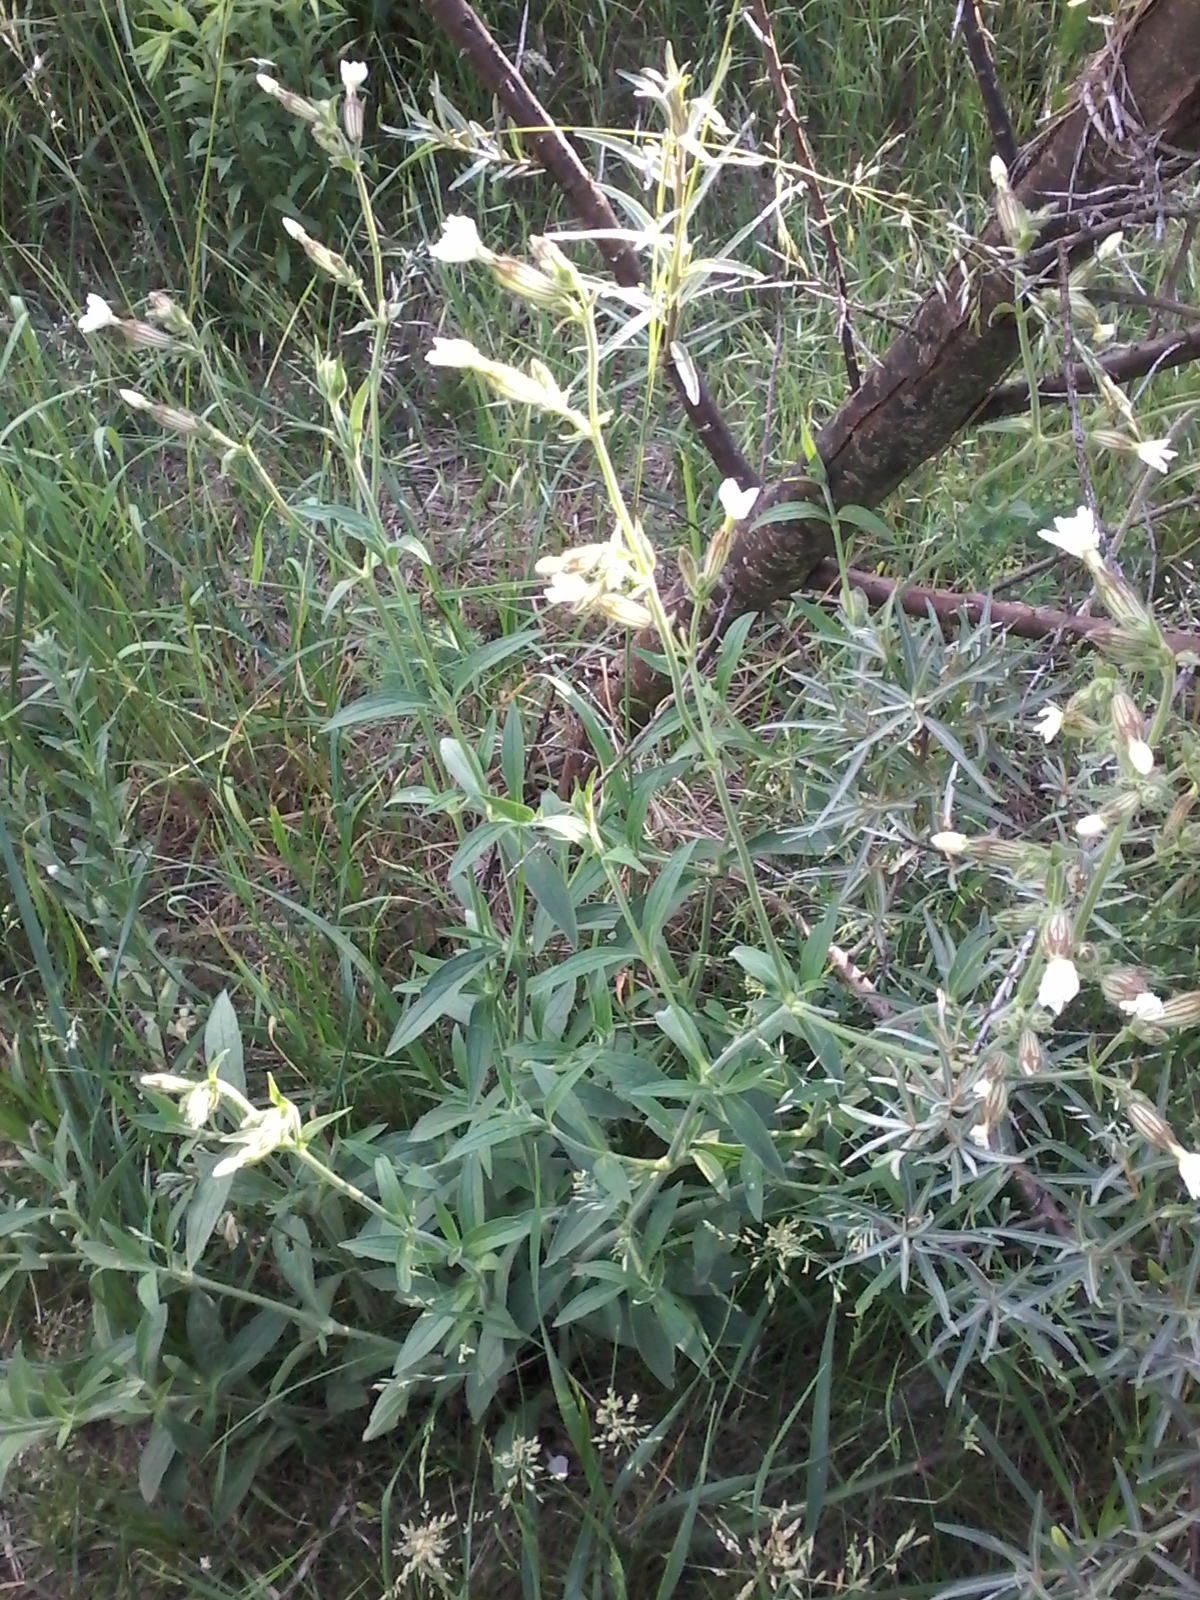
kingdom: Plantae
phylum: Tracheophyta
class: Magnoliopsida
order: Caryophyllales
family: Caryophyllaceae
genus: Silene
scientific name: Silene latifolia
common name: White campion
